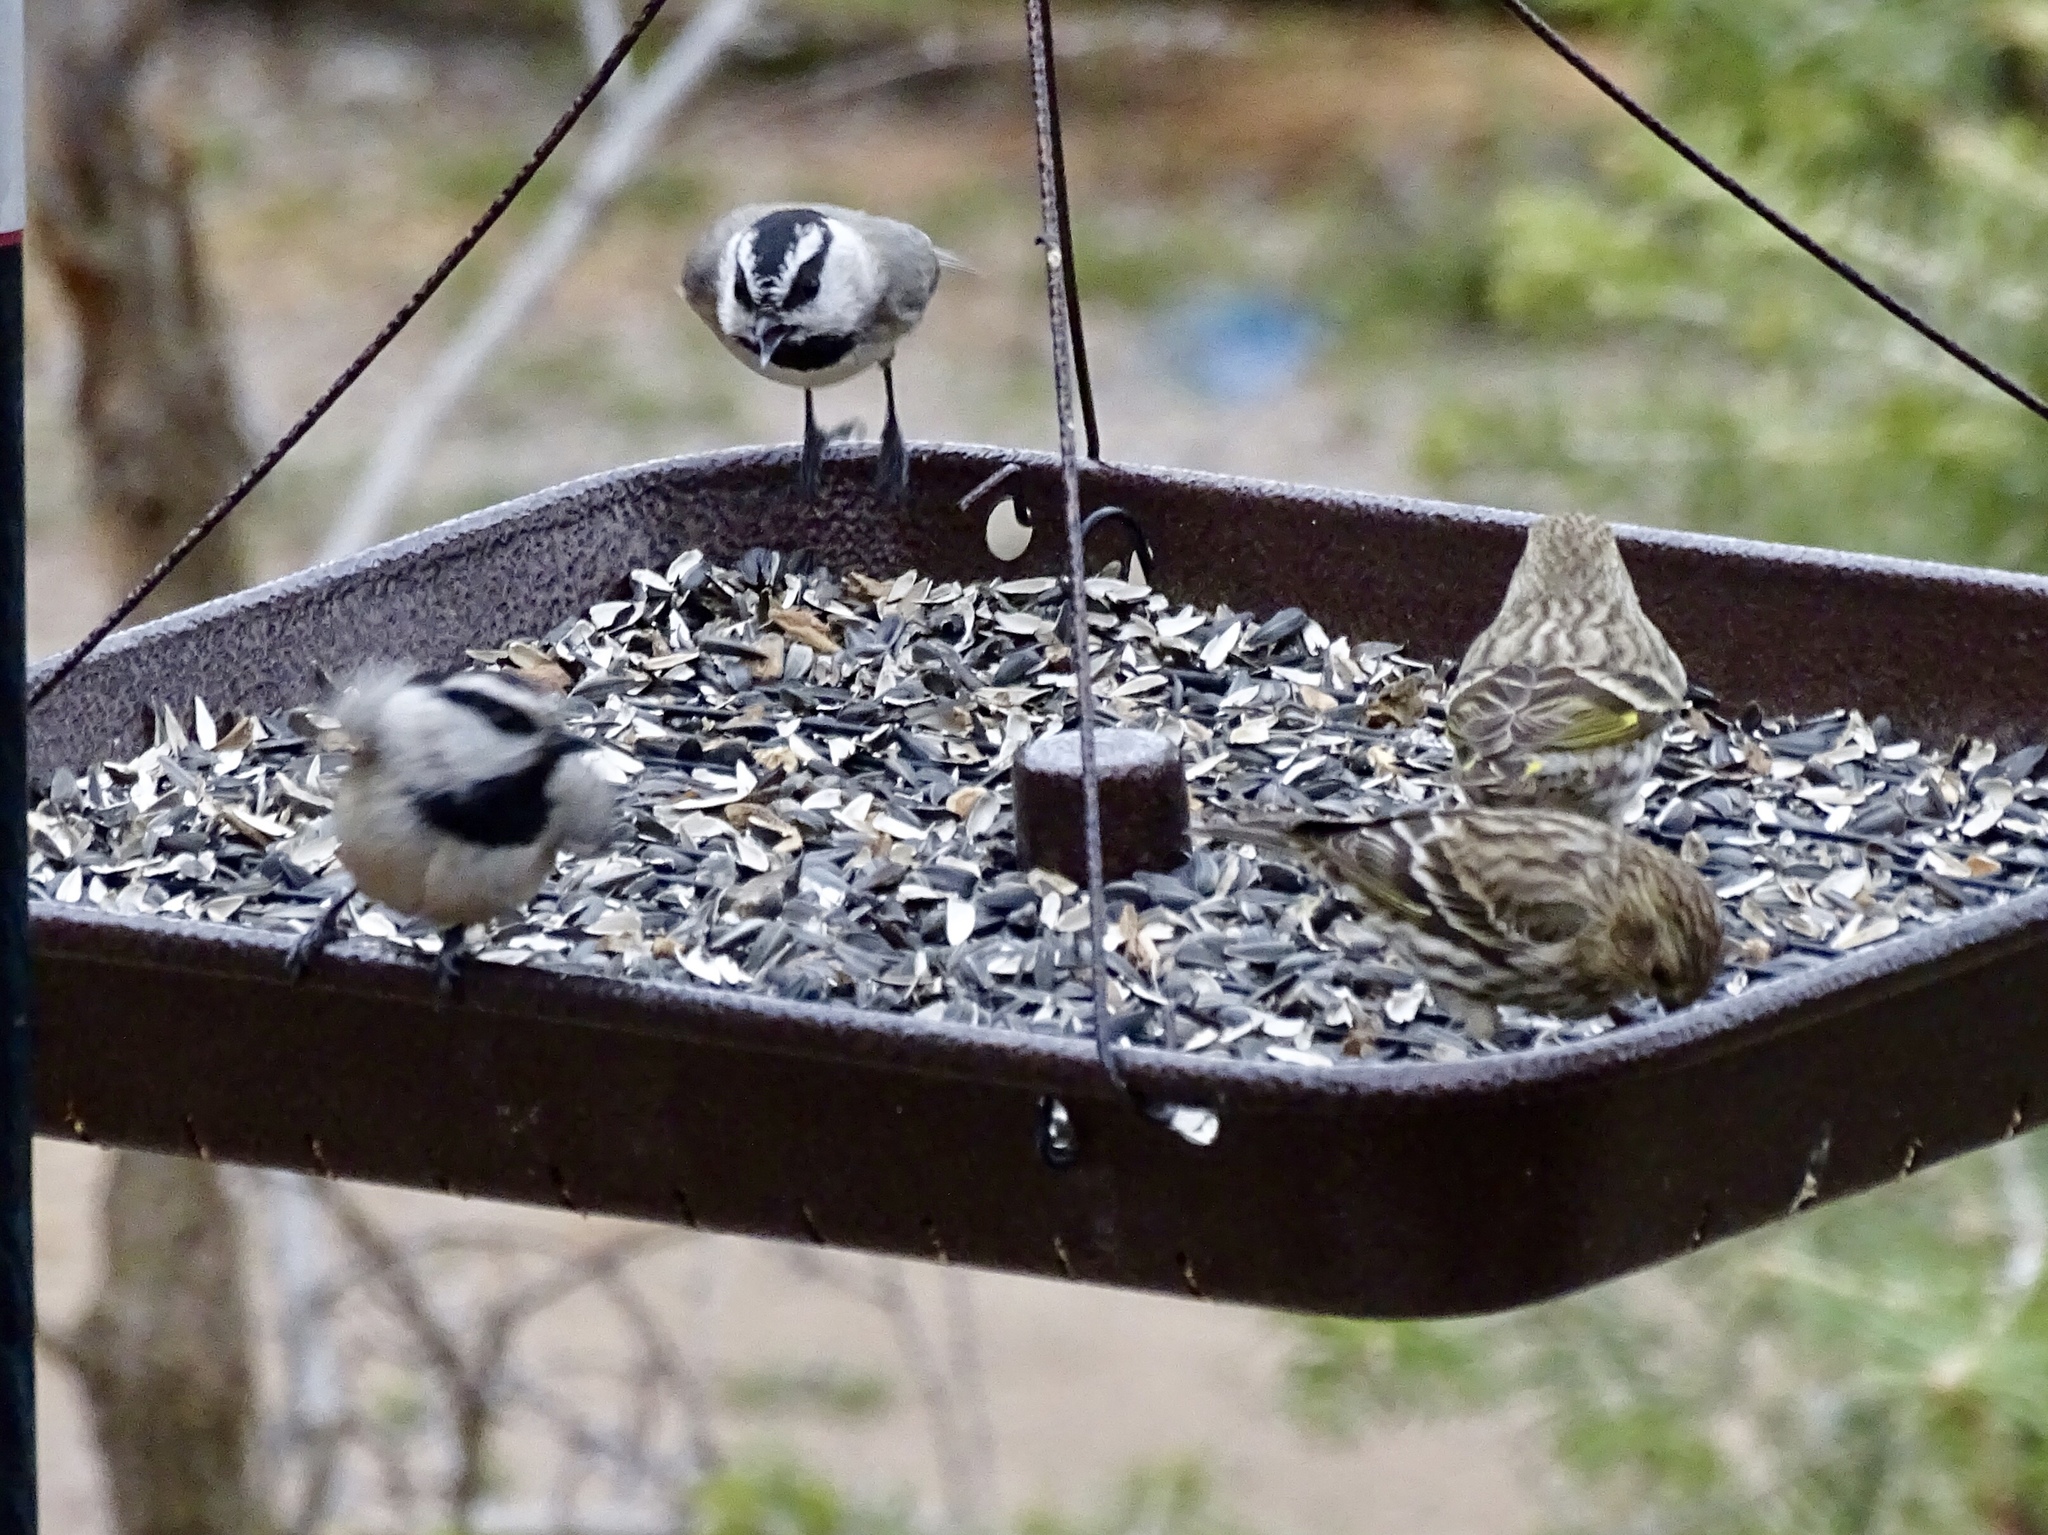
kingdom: Animalia
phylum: Chordata
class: Aves
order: Passeriformes
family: Paridae
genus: Poecile
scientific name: Poecile gambeli
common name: Mountain chickadee
